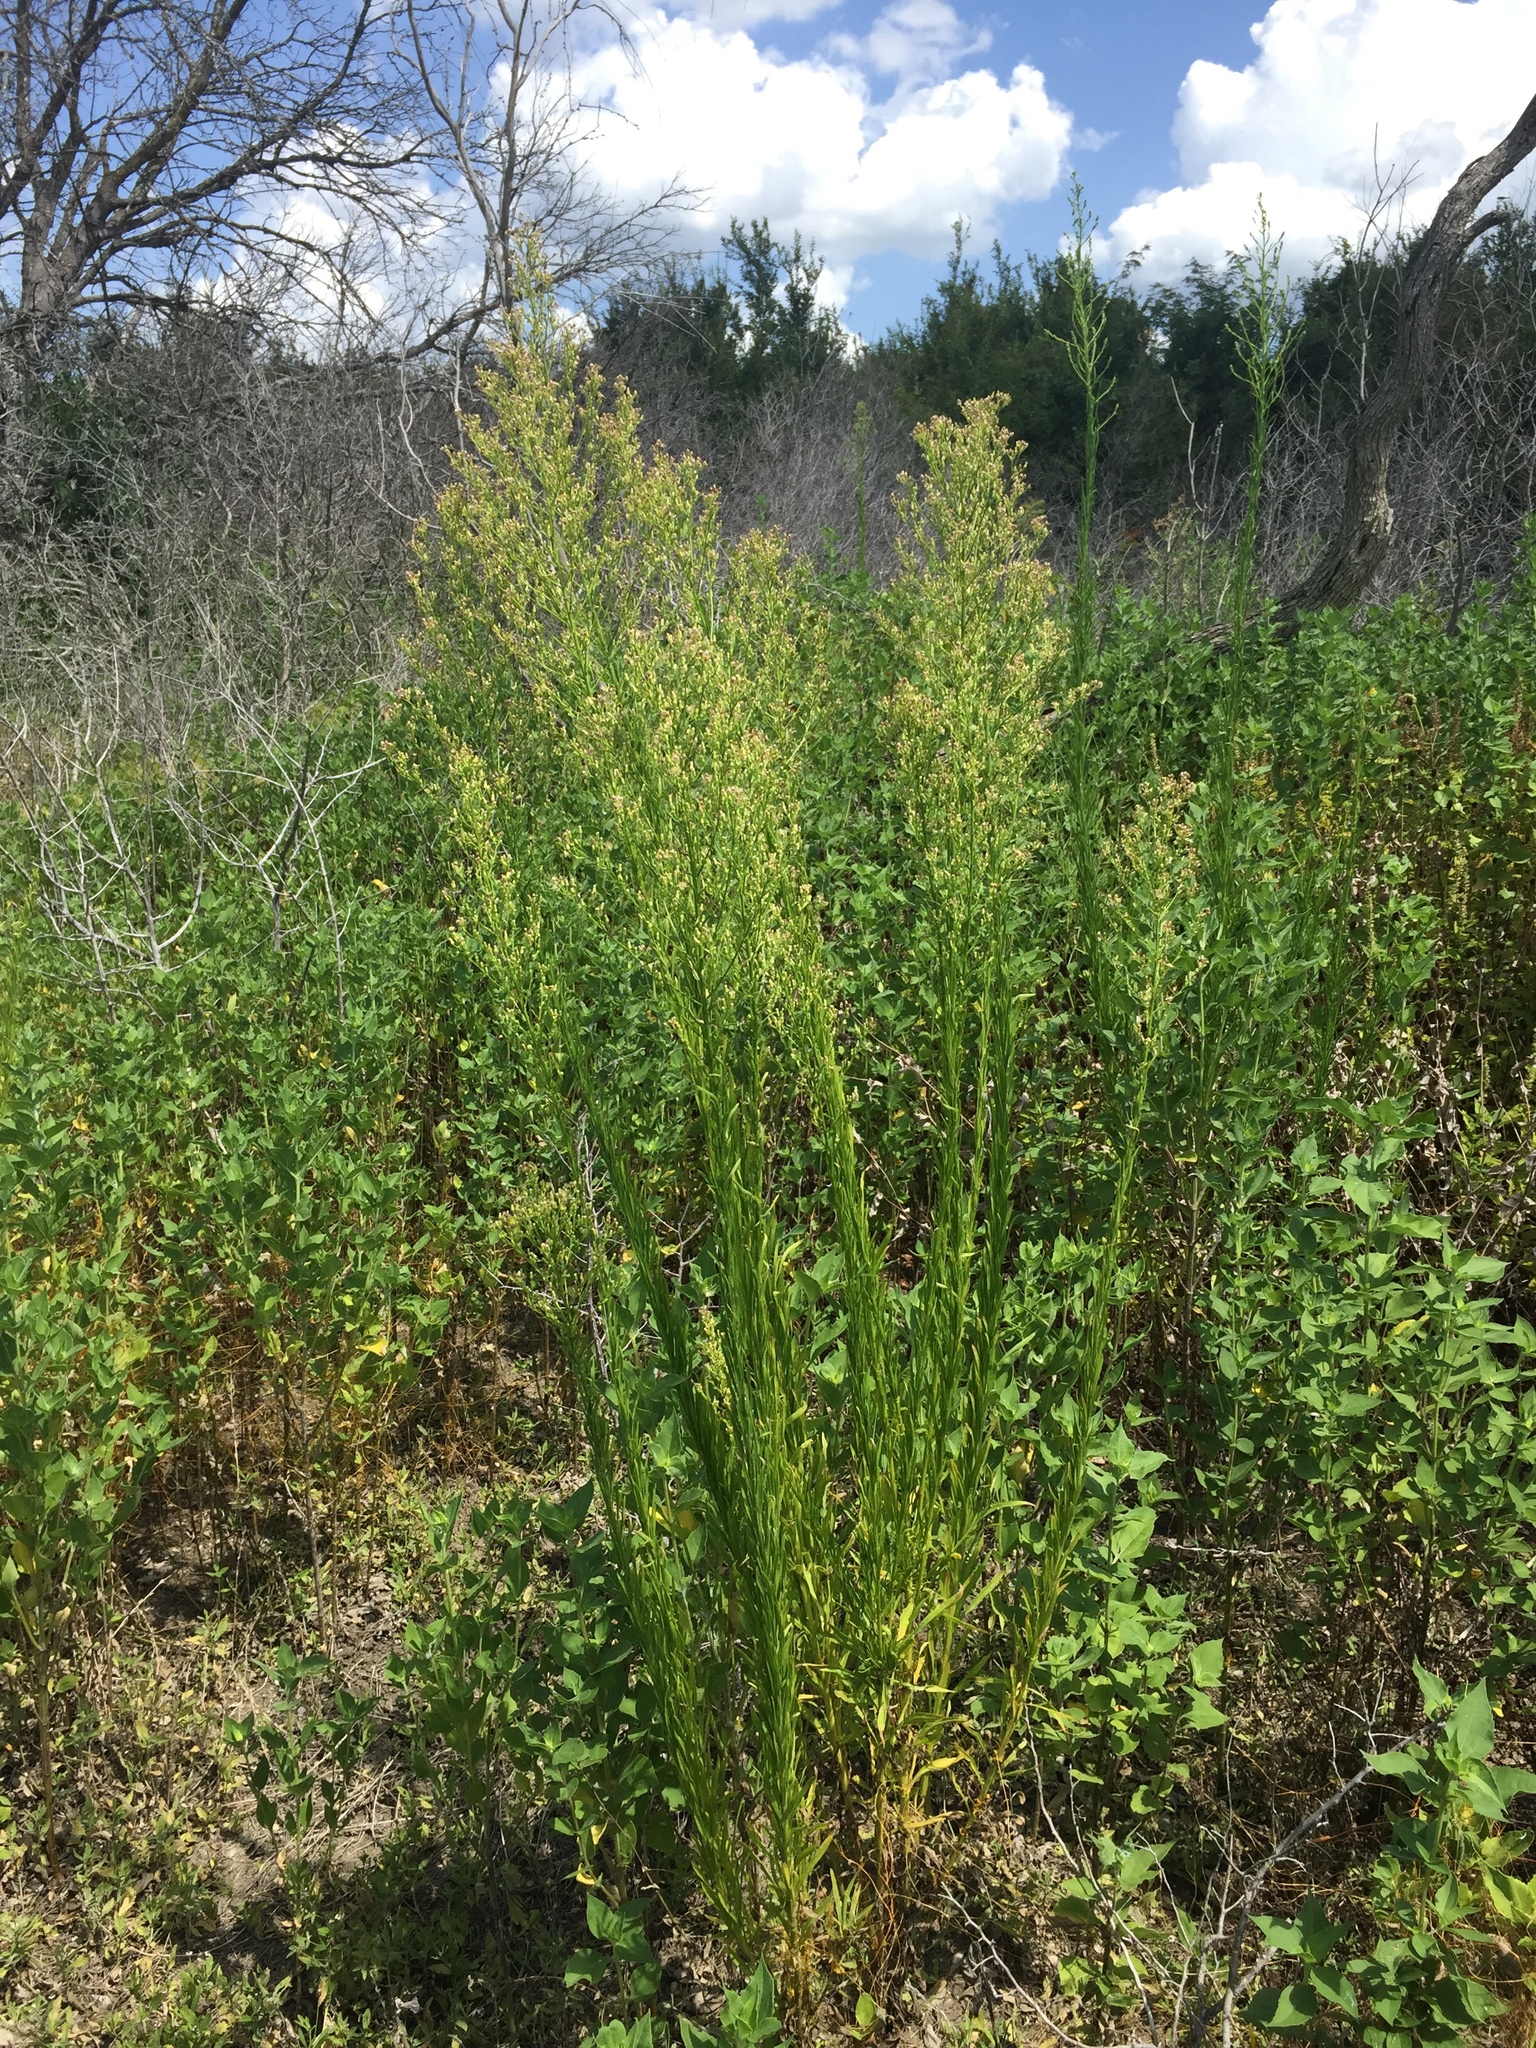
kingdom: Plantae
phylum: Tracheophyta
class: Magnoliopsida
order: Asterales
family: Asteraceae
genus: Erigeron
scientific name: Erigeron canadensis
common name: Canadian fleabane
